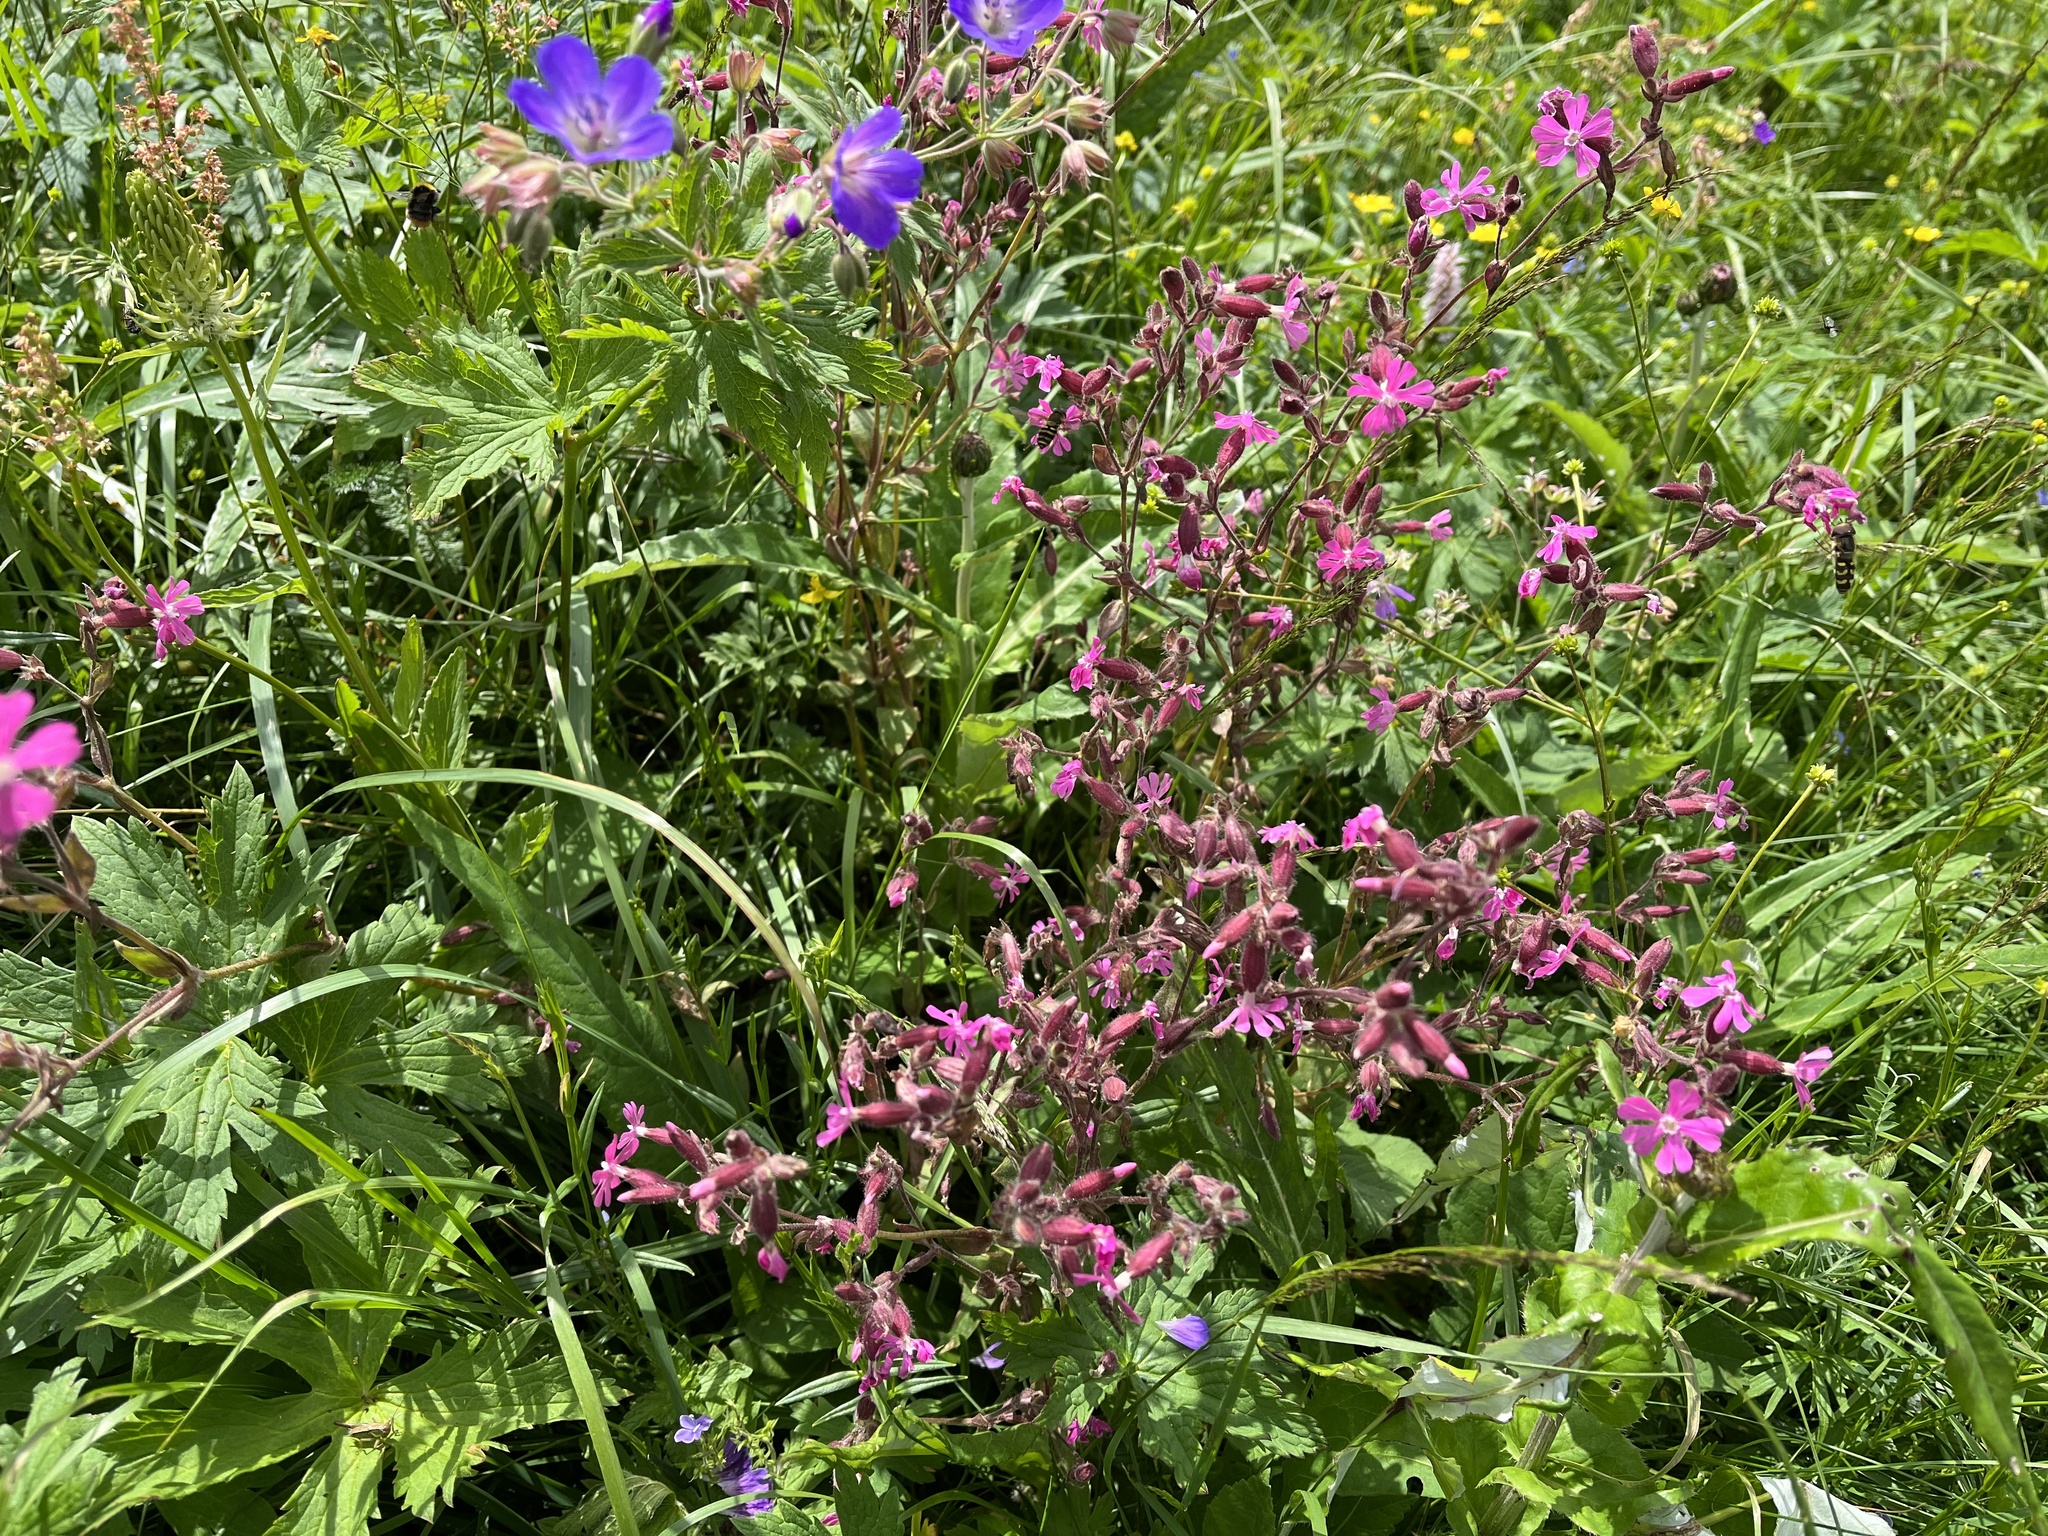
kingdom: Plantae
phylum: Tracheophyta
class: Magnoliopsida
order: Caryophyllales
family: Caryophyllaceae
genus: Silene
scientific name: Silene dioica
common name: Red campion
